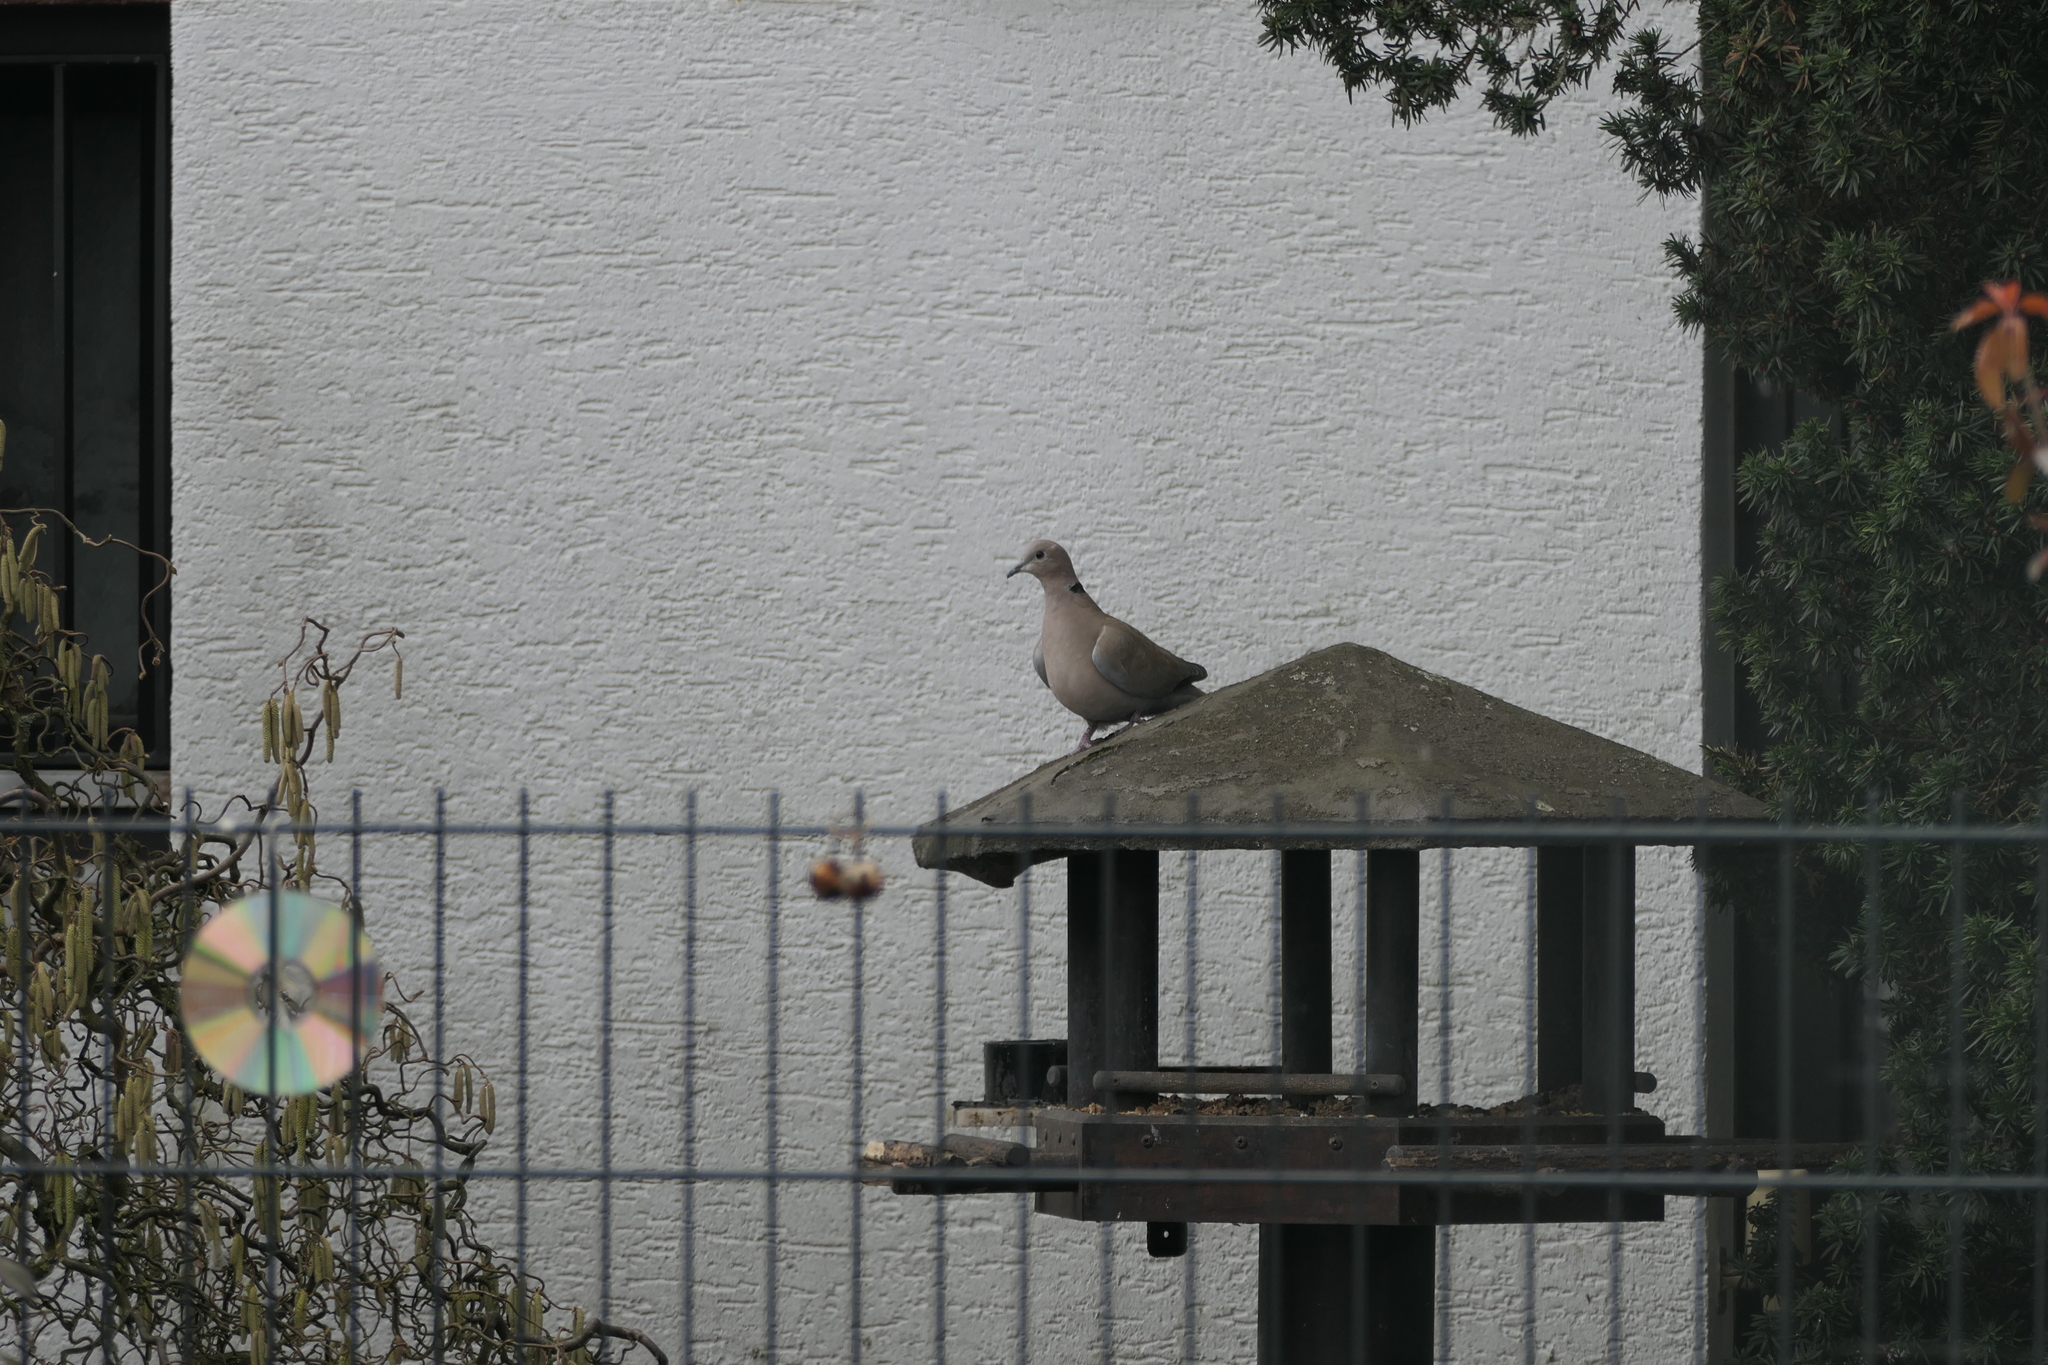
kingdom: Animalia
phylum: Chordata
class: Aves
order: Columbiformes
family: Columbidae
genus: Streptopelia
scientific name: Streptopelia decaocto
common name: Eurasian collared dove
